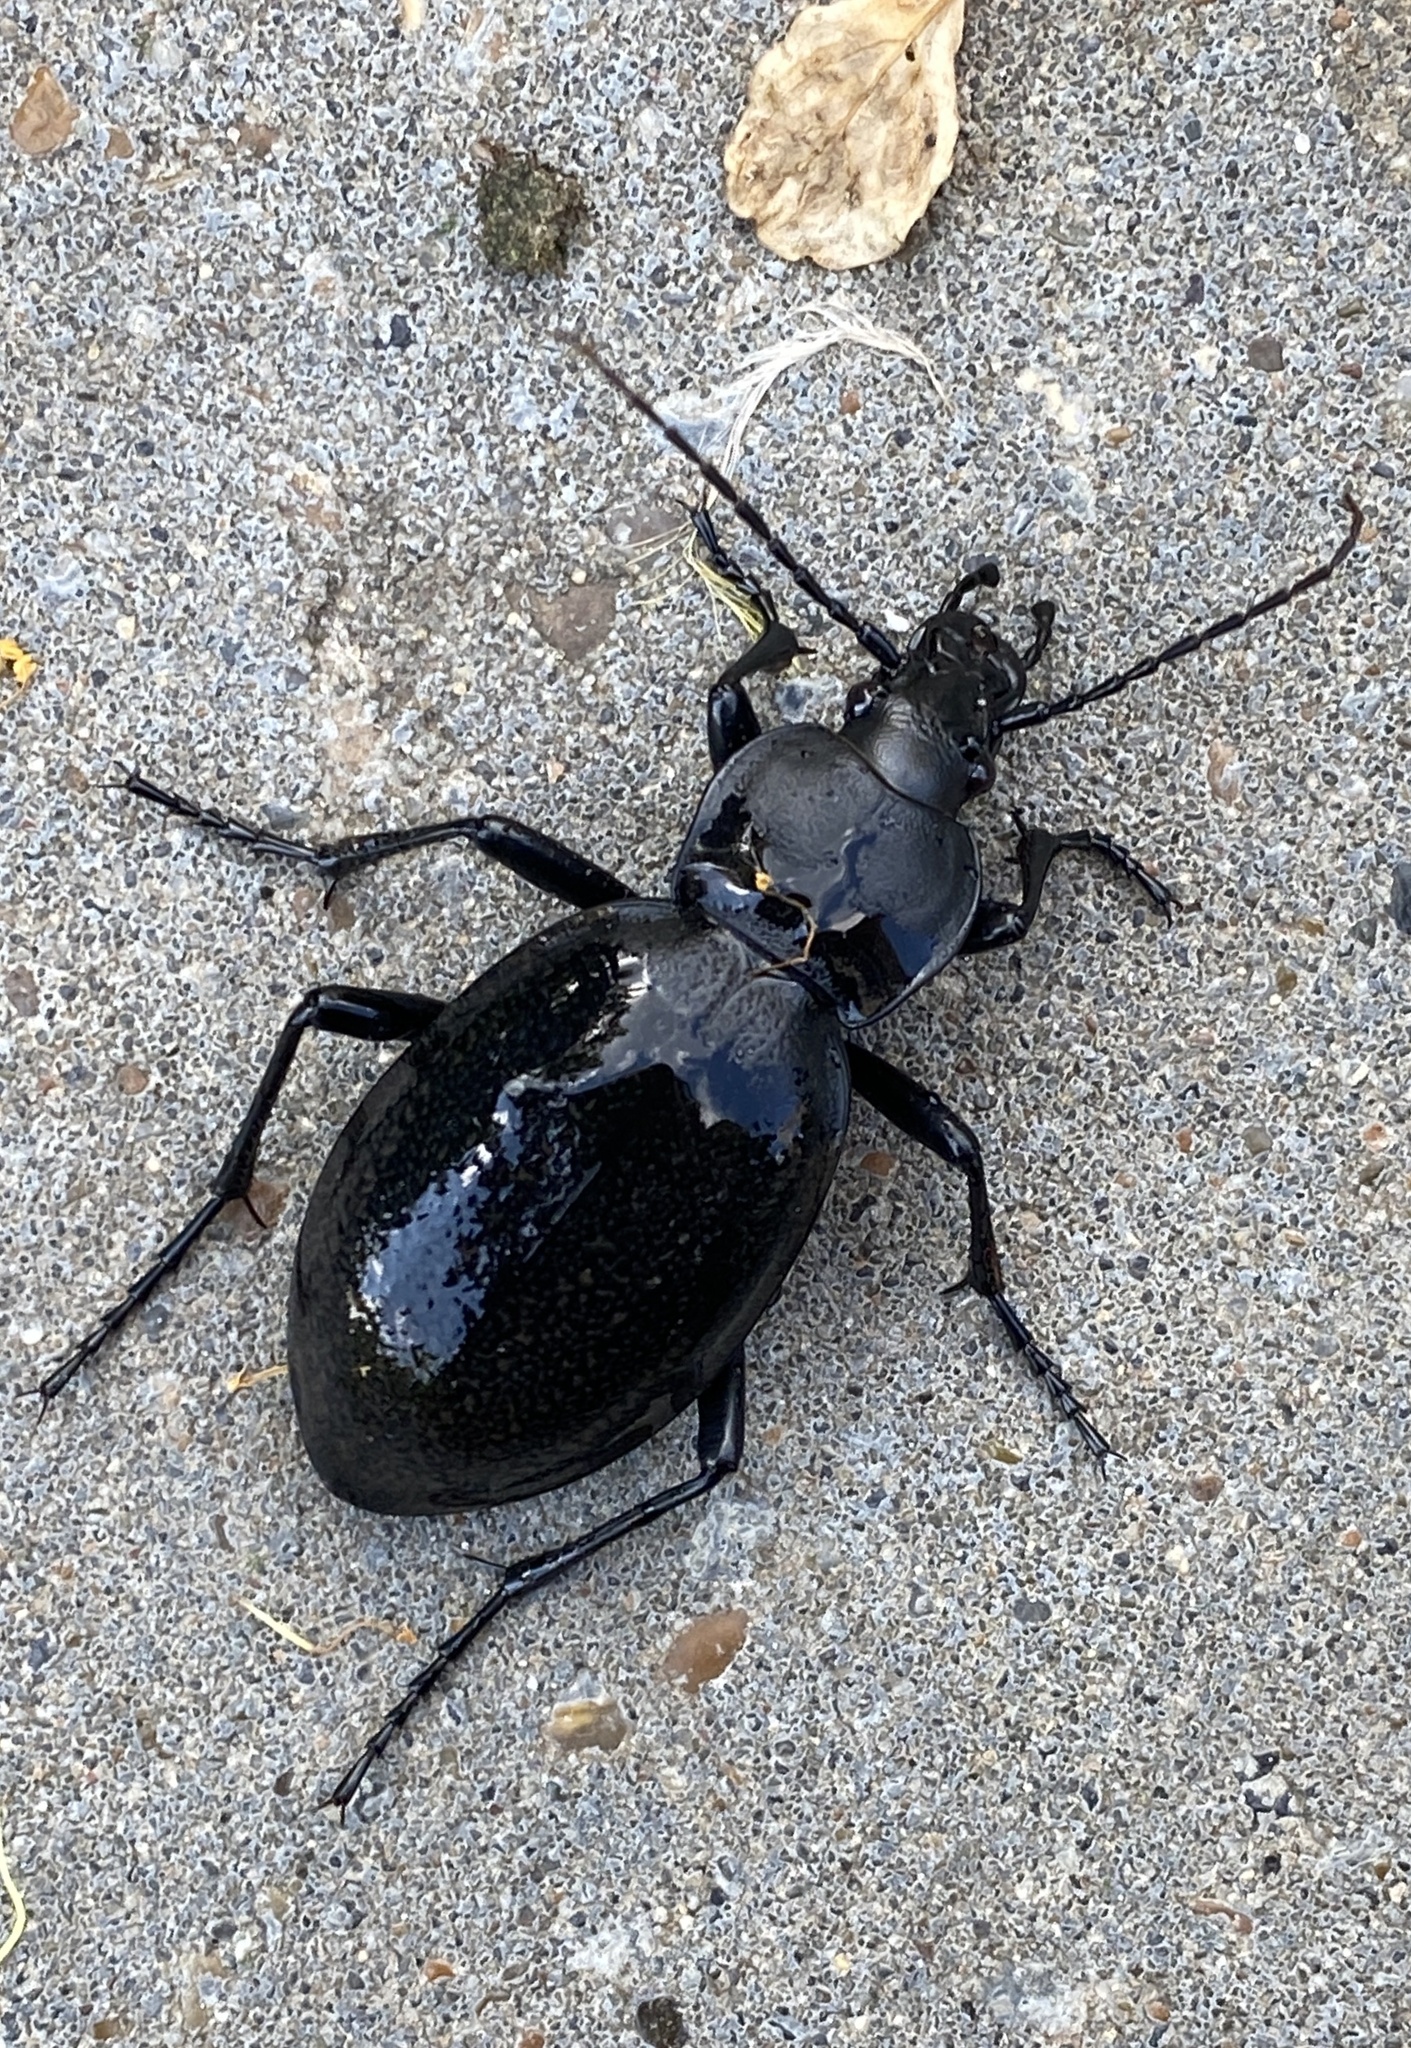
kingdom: Animalia
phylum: Arthropoda
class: Insecta
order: Coleoptera
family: Carabidae
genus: Carabus
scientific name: Carabus coriaceus
